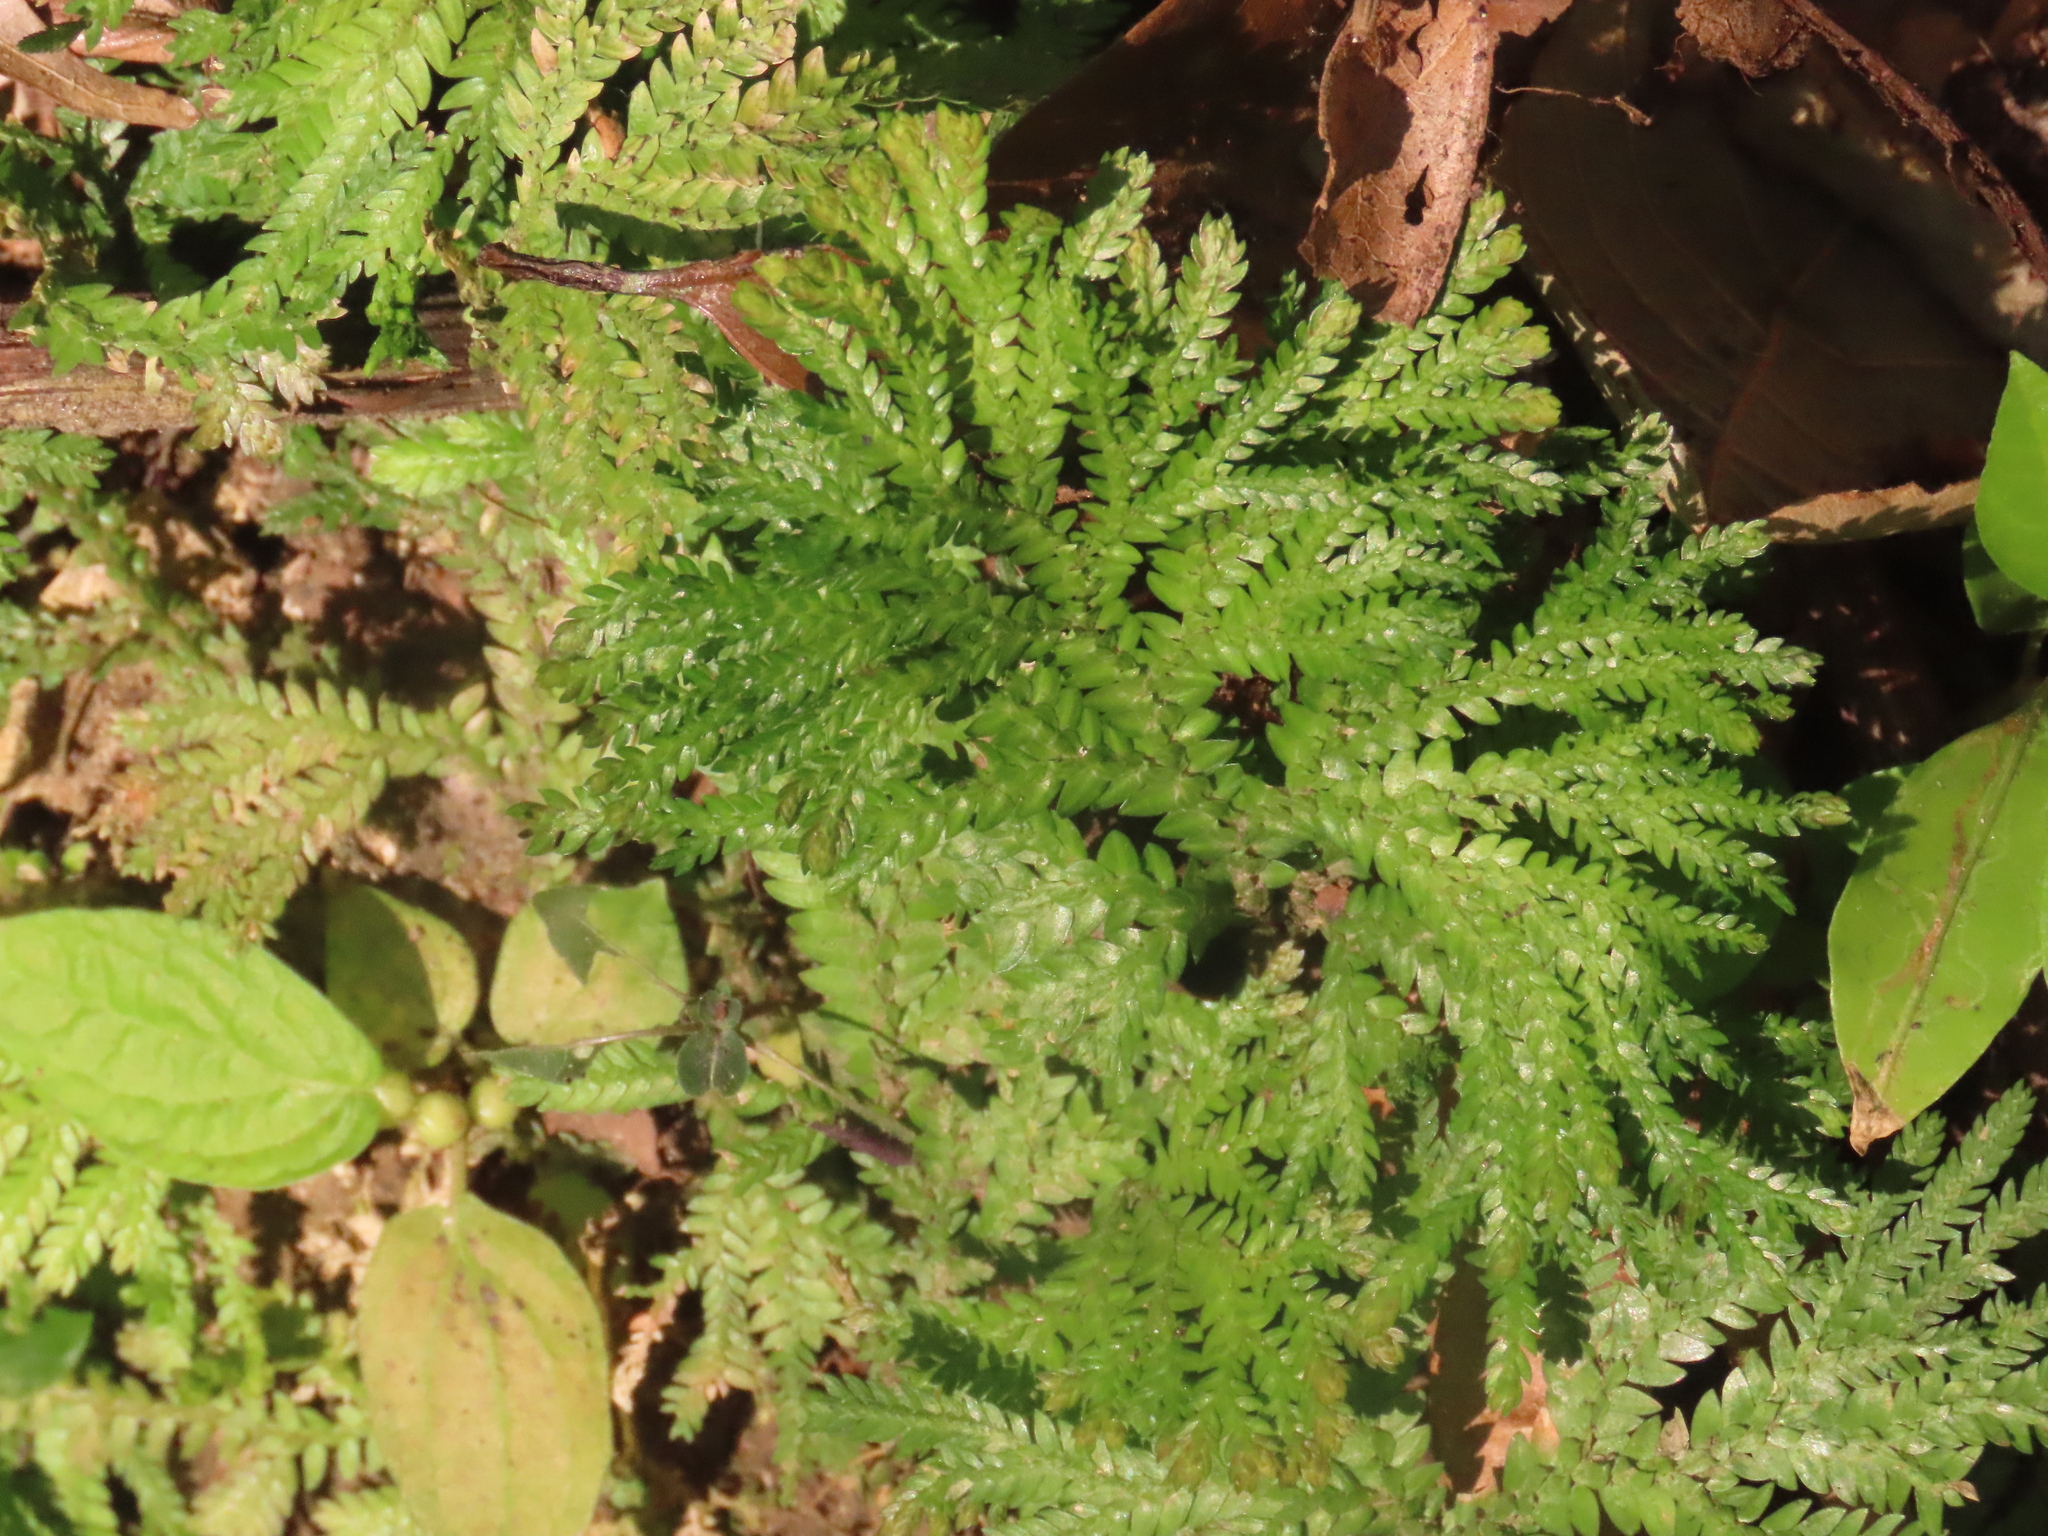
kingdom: Plantae
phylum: Tracheophyta
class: Lycopodiopsida
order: Selaginellales
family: Selaginellaceae
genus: Selaginella
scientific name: Selaginella arthritica
